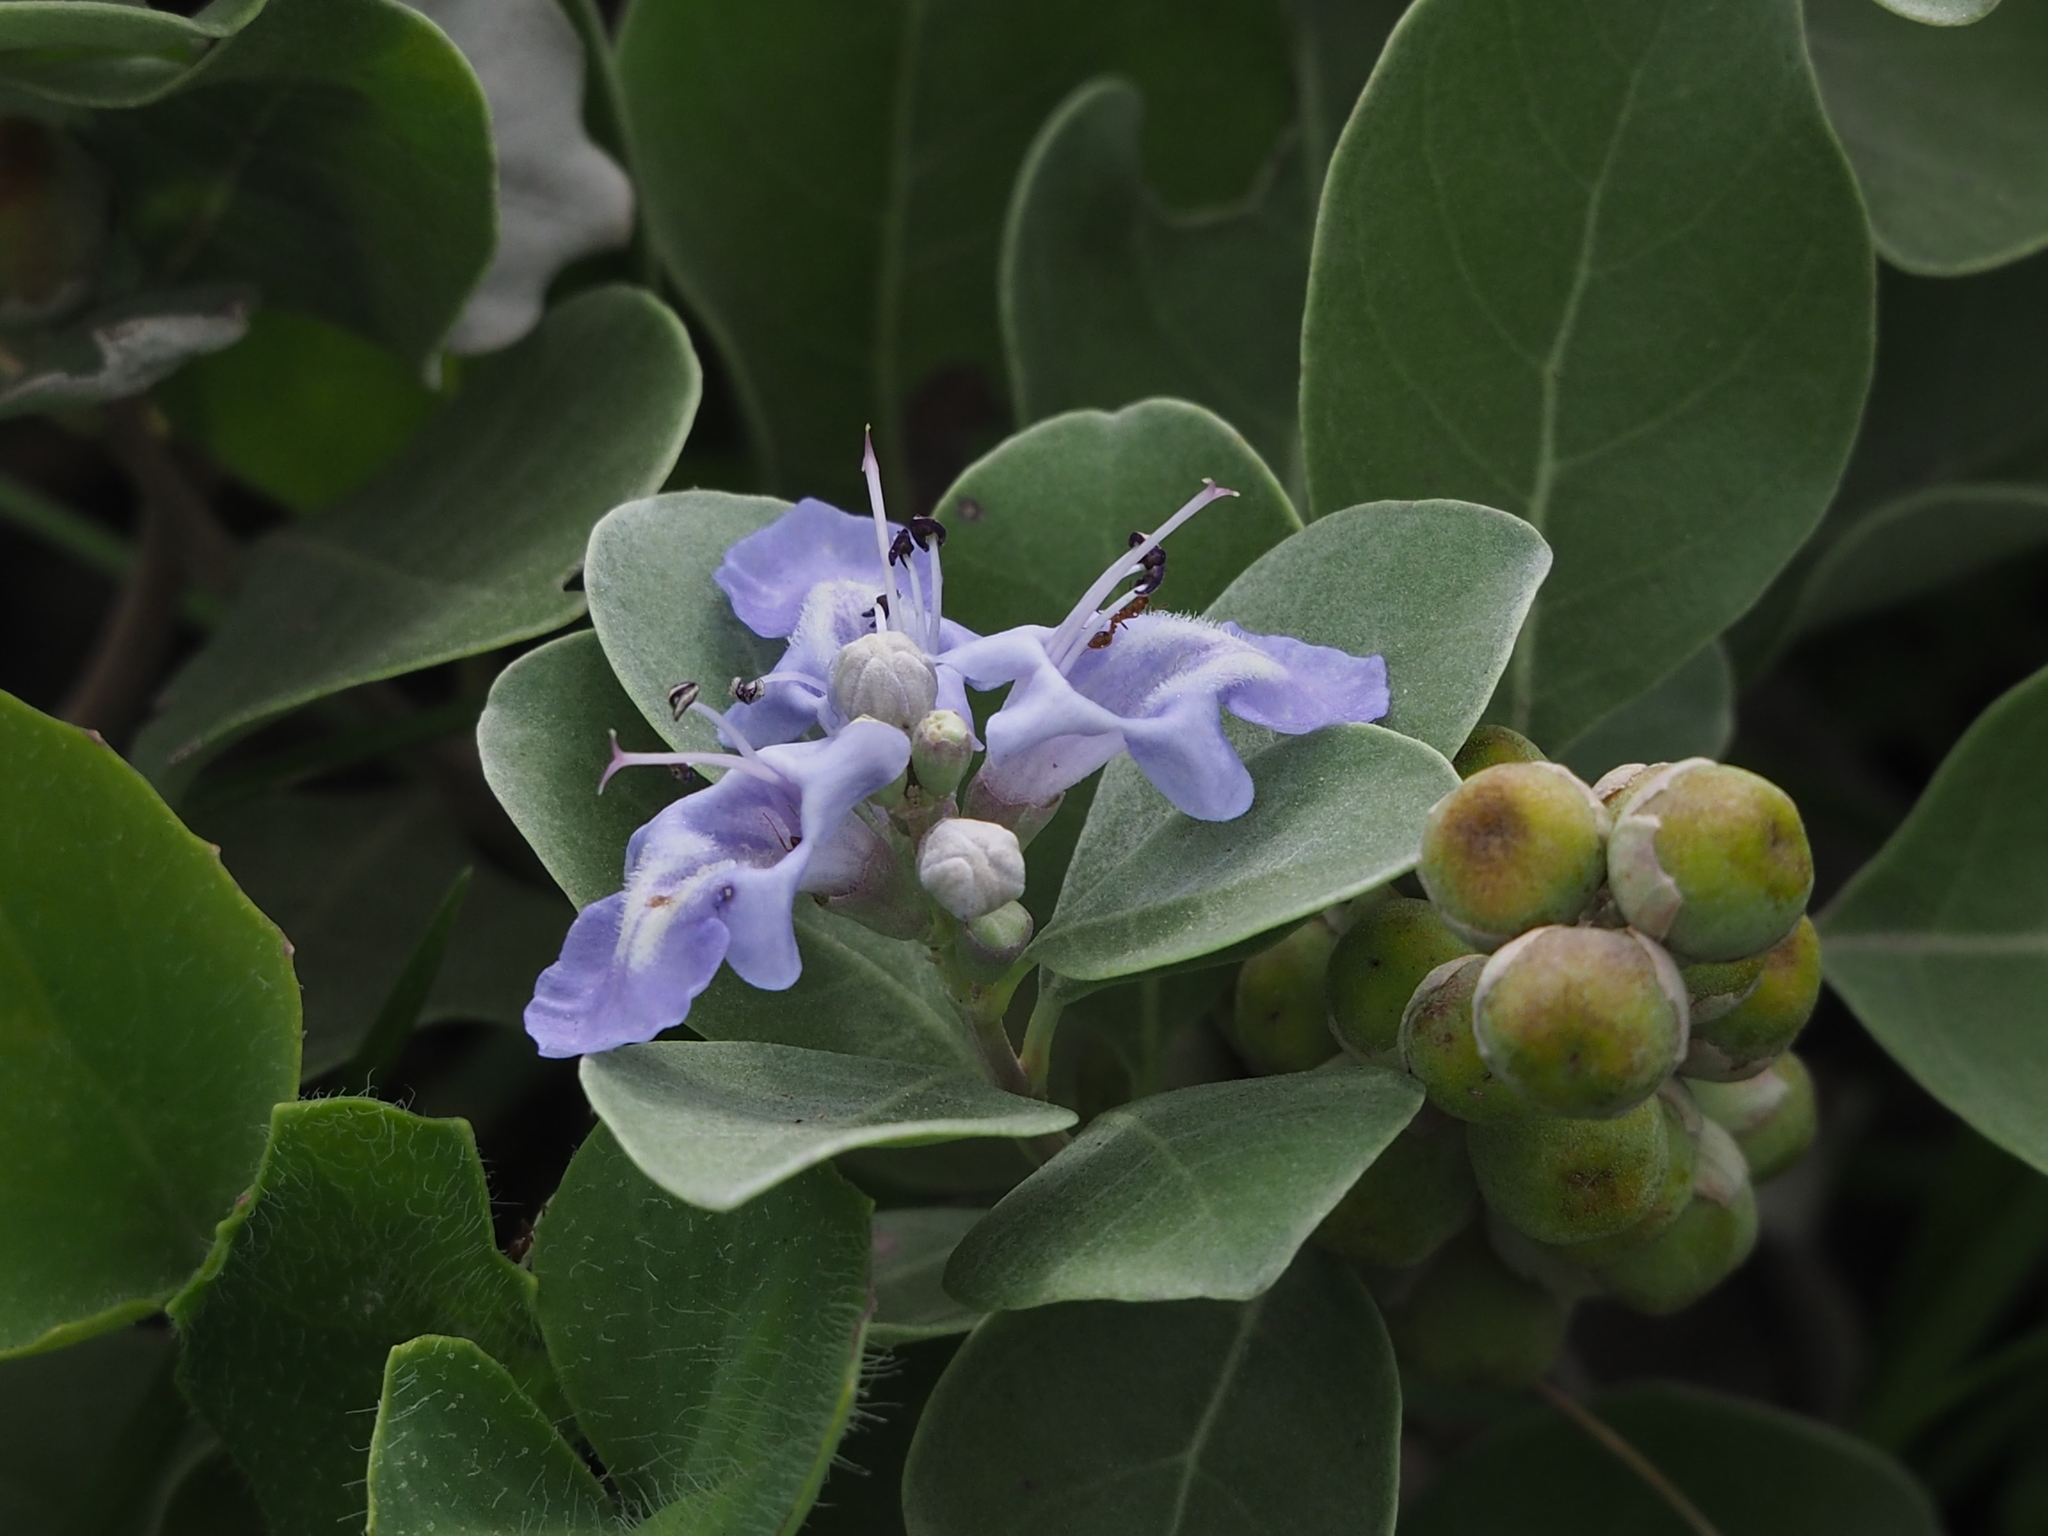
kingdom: Plantae
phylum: Tracheophyta
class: Magnoliopsida
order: Lamiales
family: Lamiaceae
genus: Vitex
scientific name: Vitex rotundifolia
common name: Beach vitex
